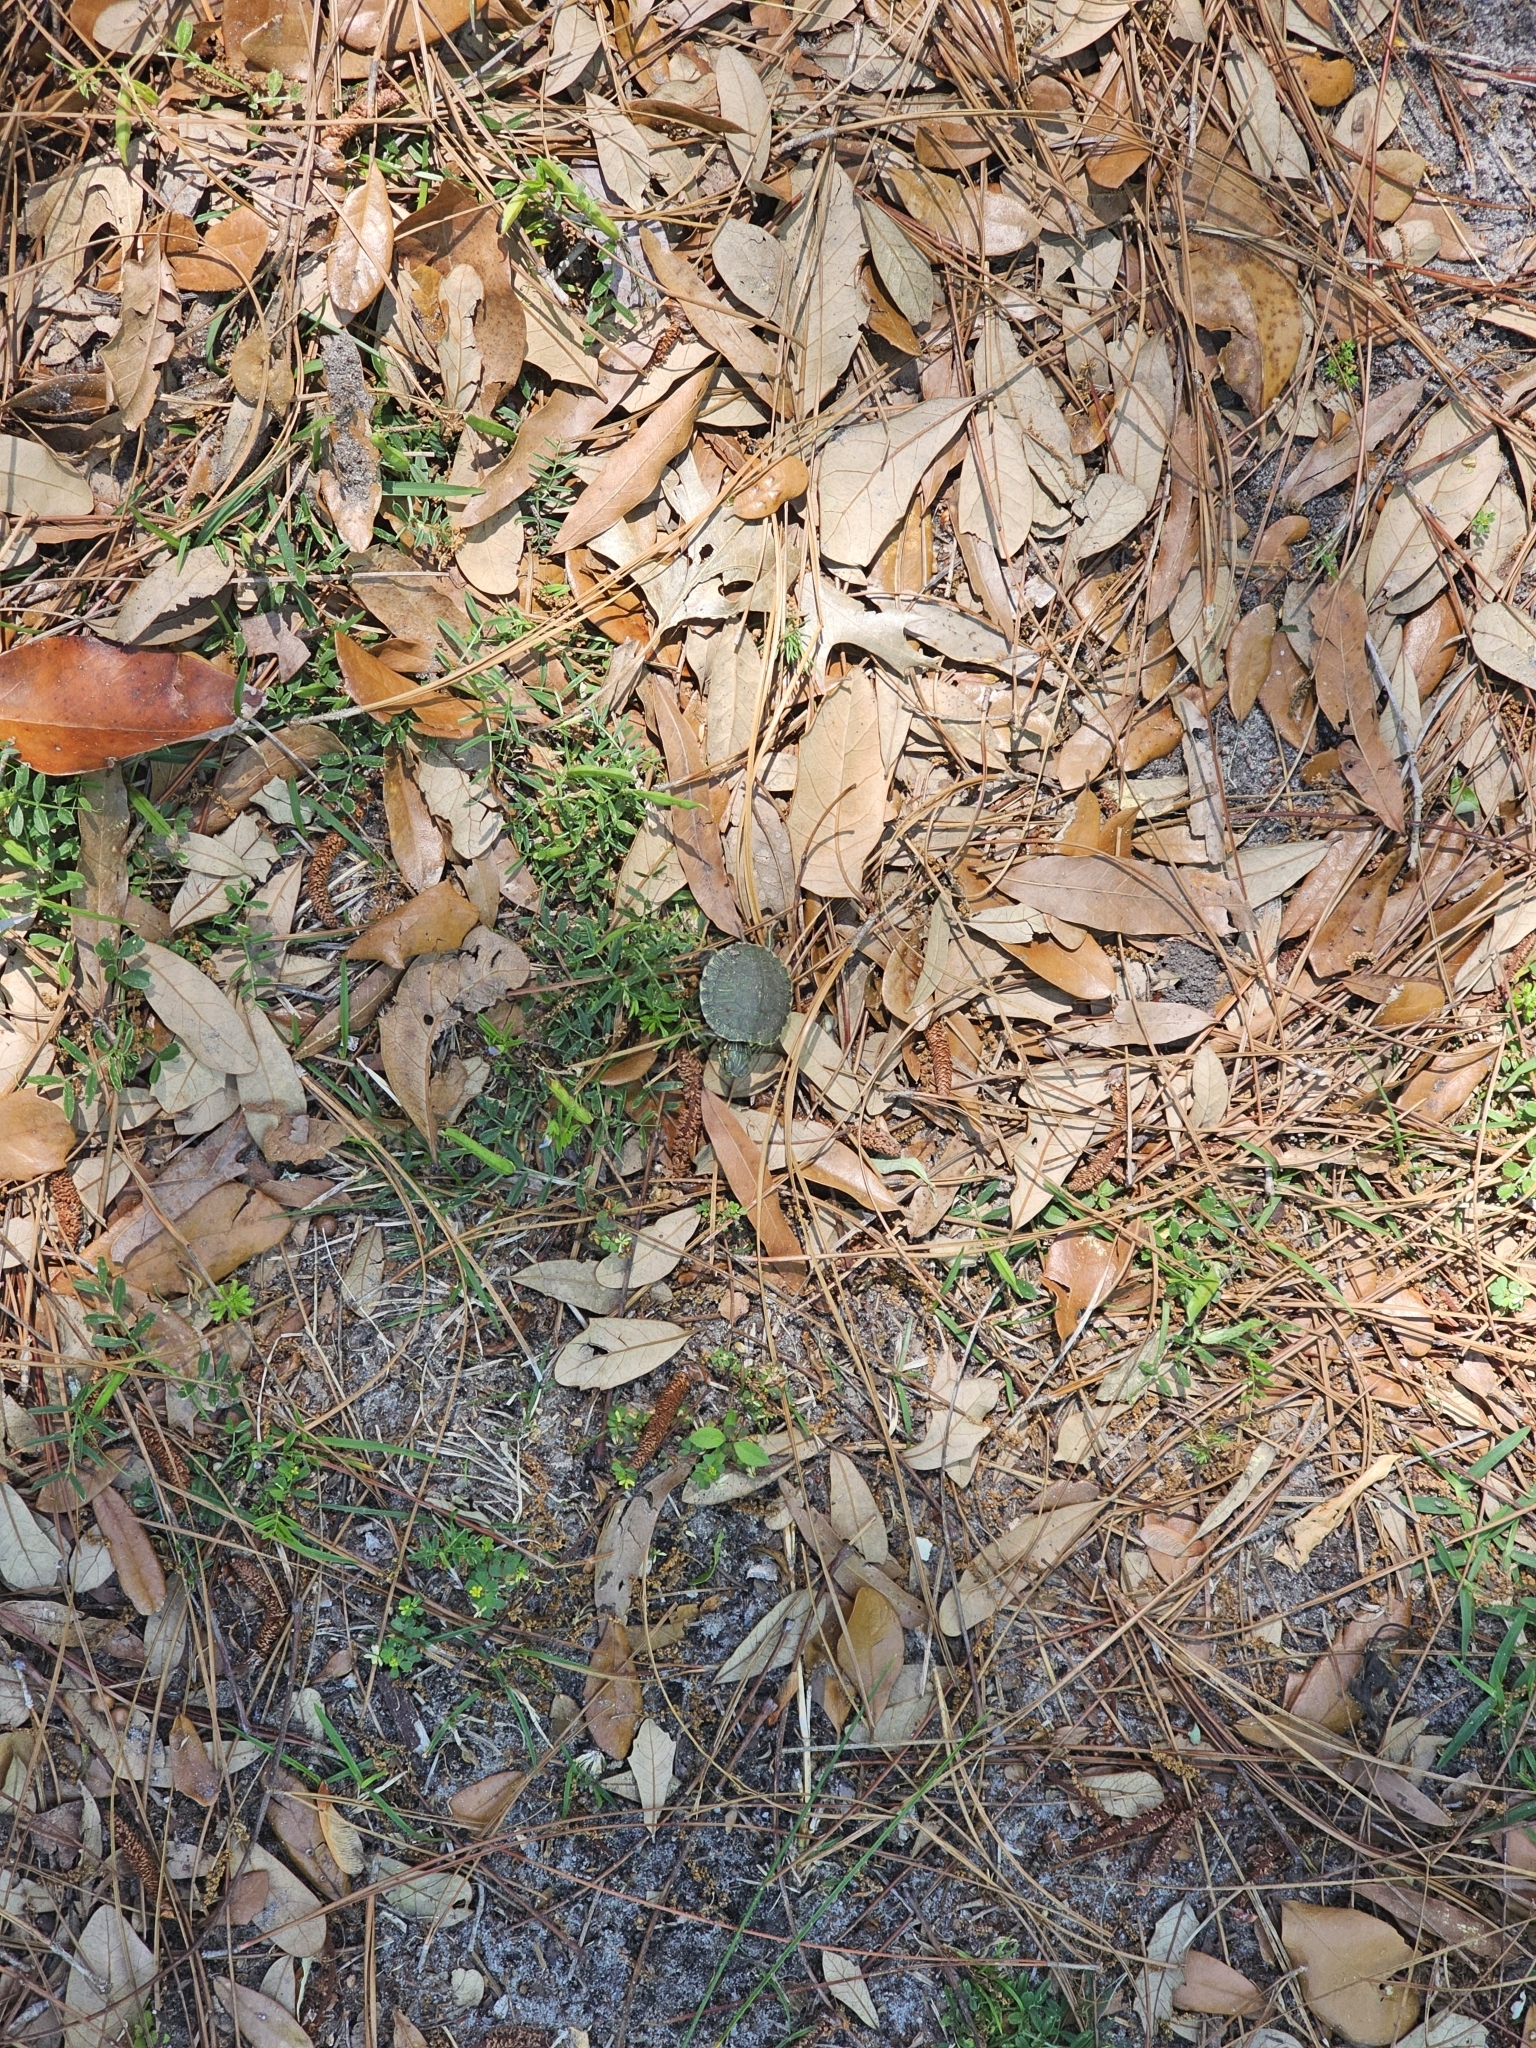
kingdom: Animalia
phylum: Chordata
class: Testudines
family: Emydidae
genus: Trachemys
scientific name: Trachemys scripta
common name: Slider
